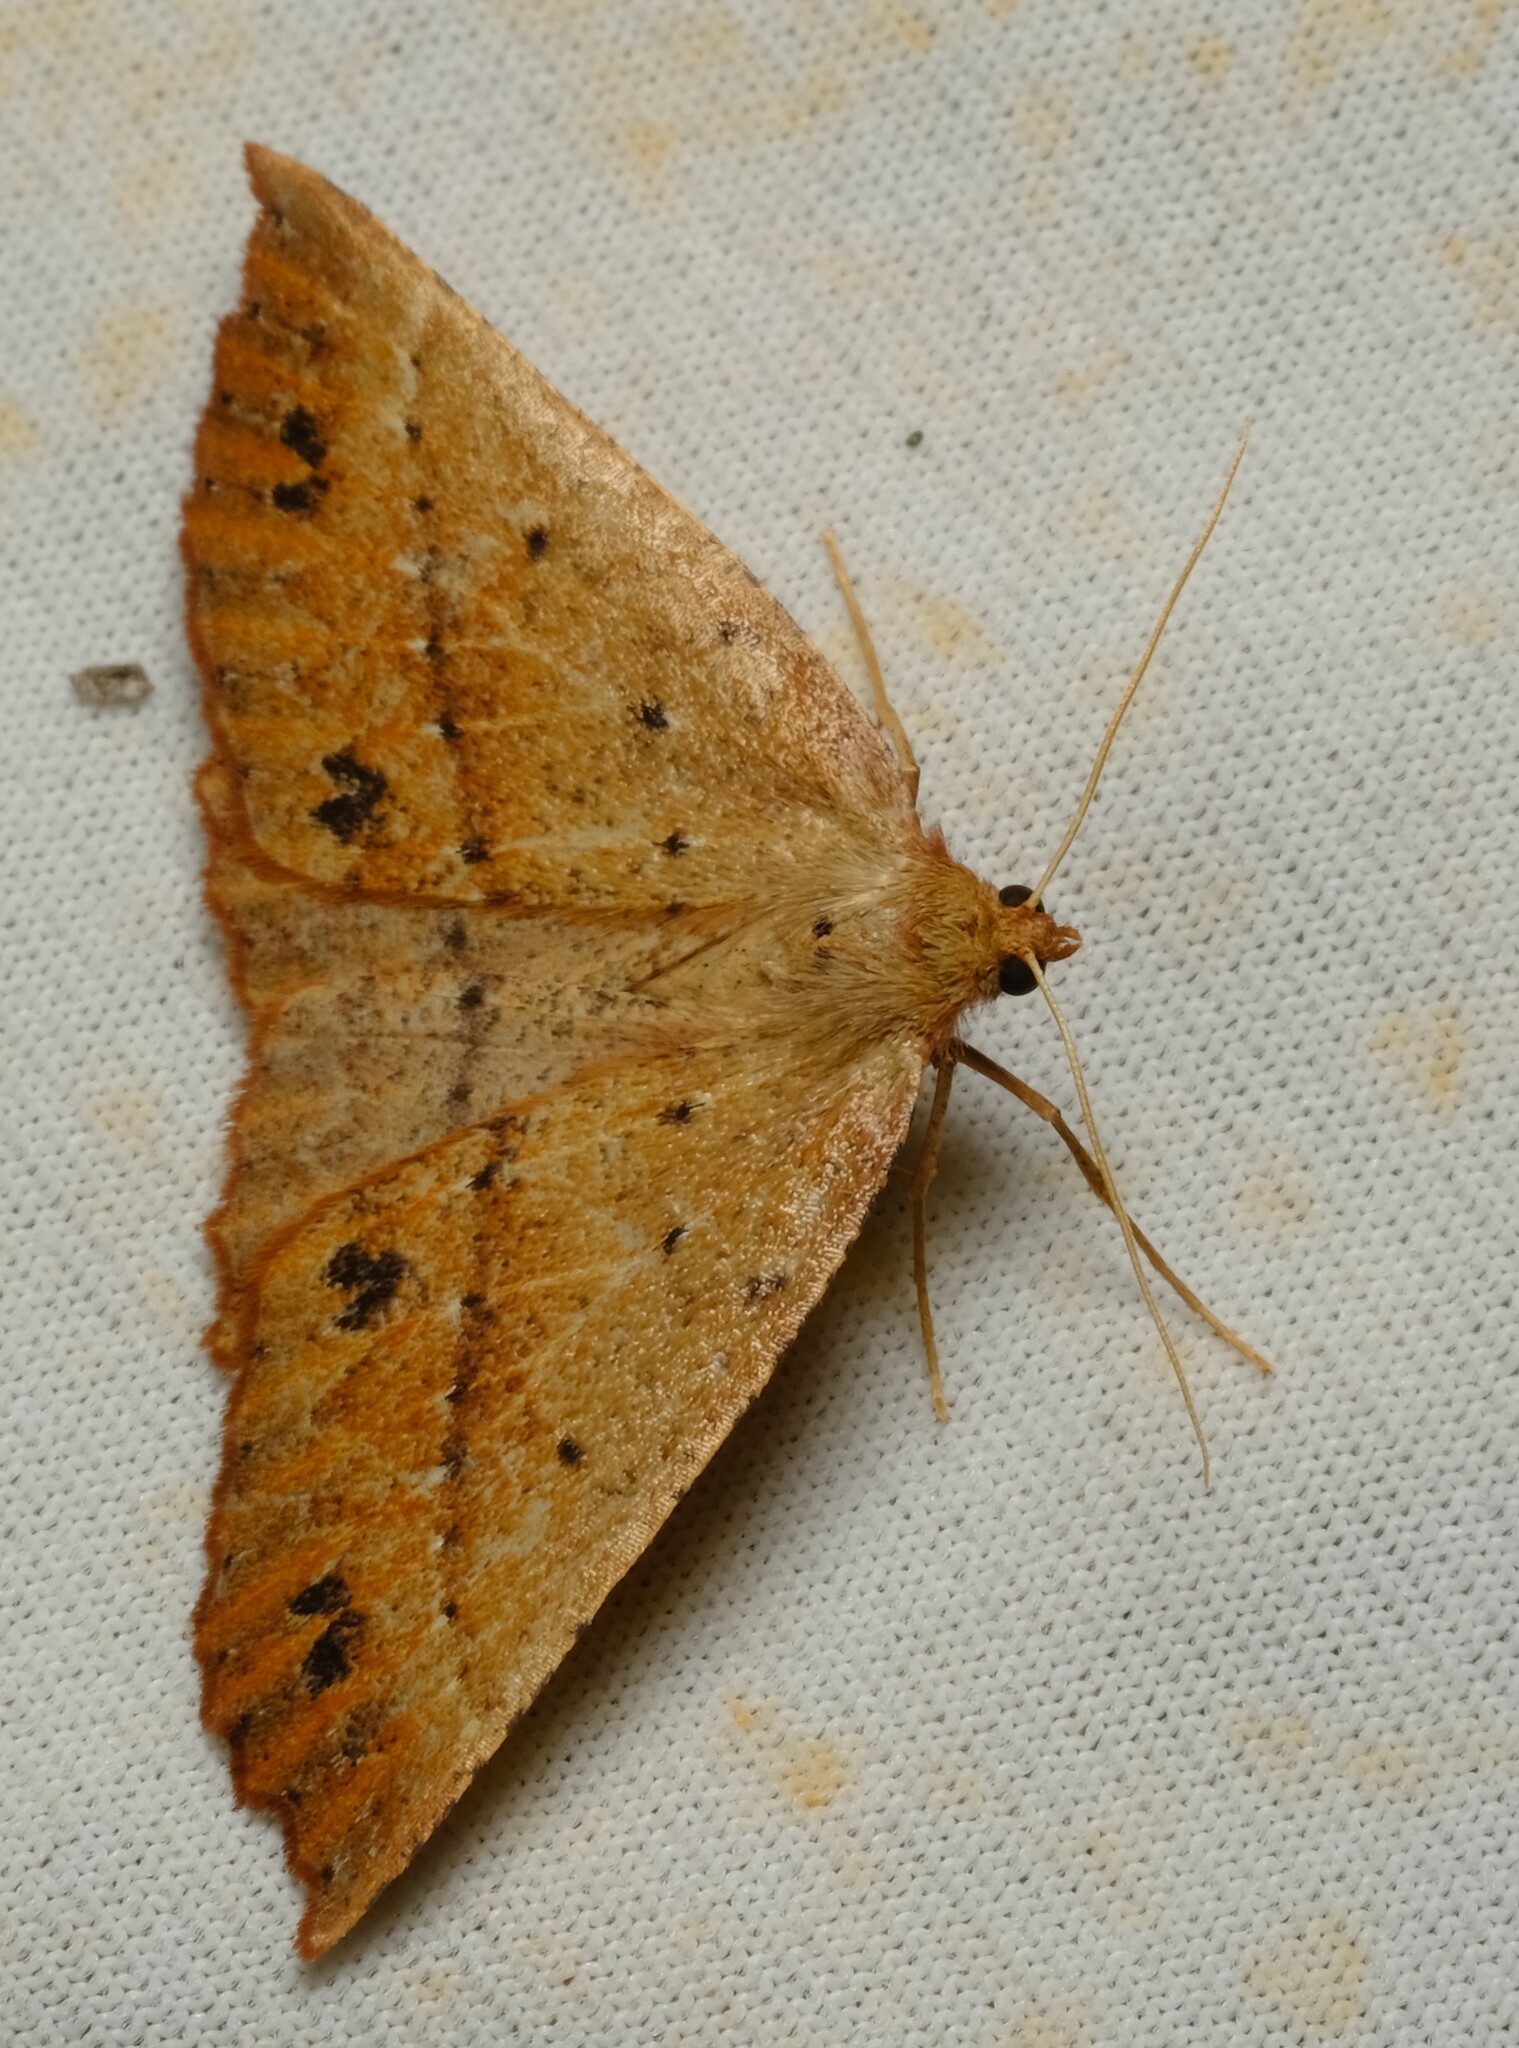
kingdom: Animalia
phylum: Arthropoda
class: Insecta
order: Lepidoptera
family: Geometridae
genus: Idiodes
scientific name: Idiodes prionosema
